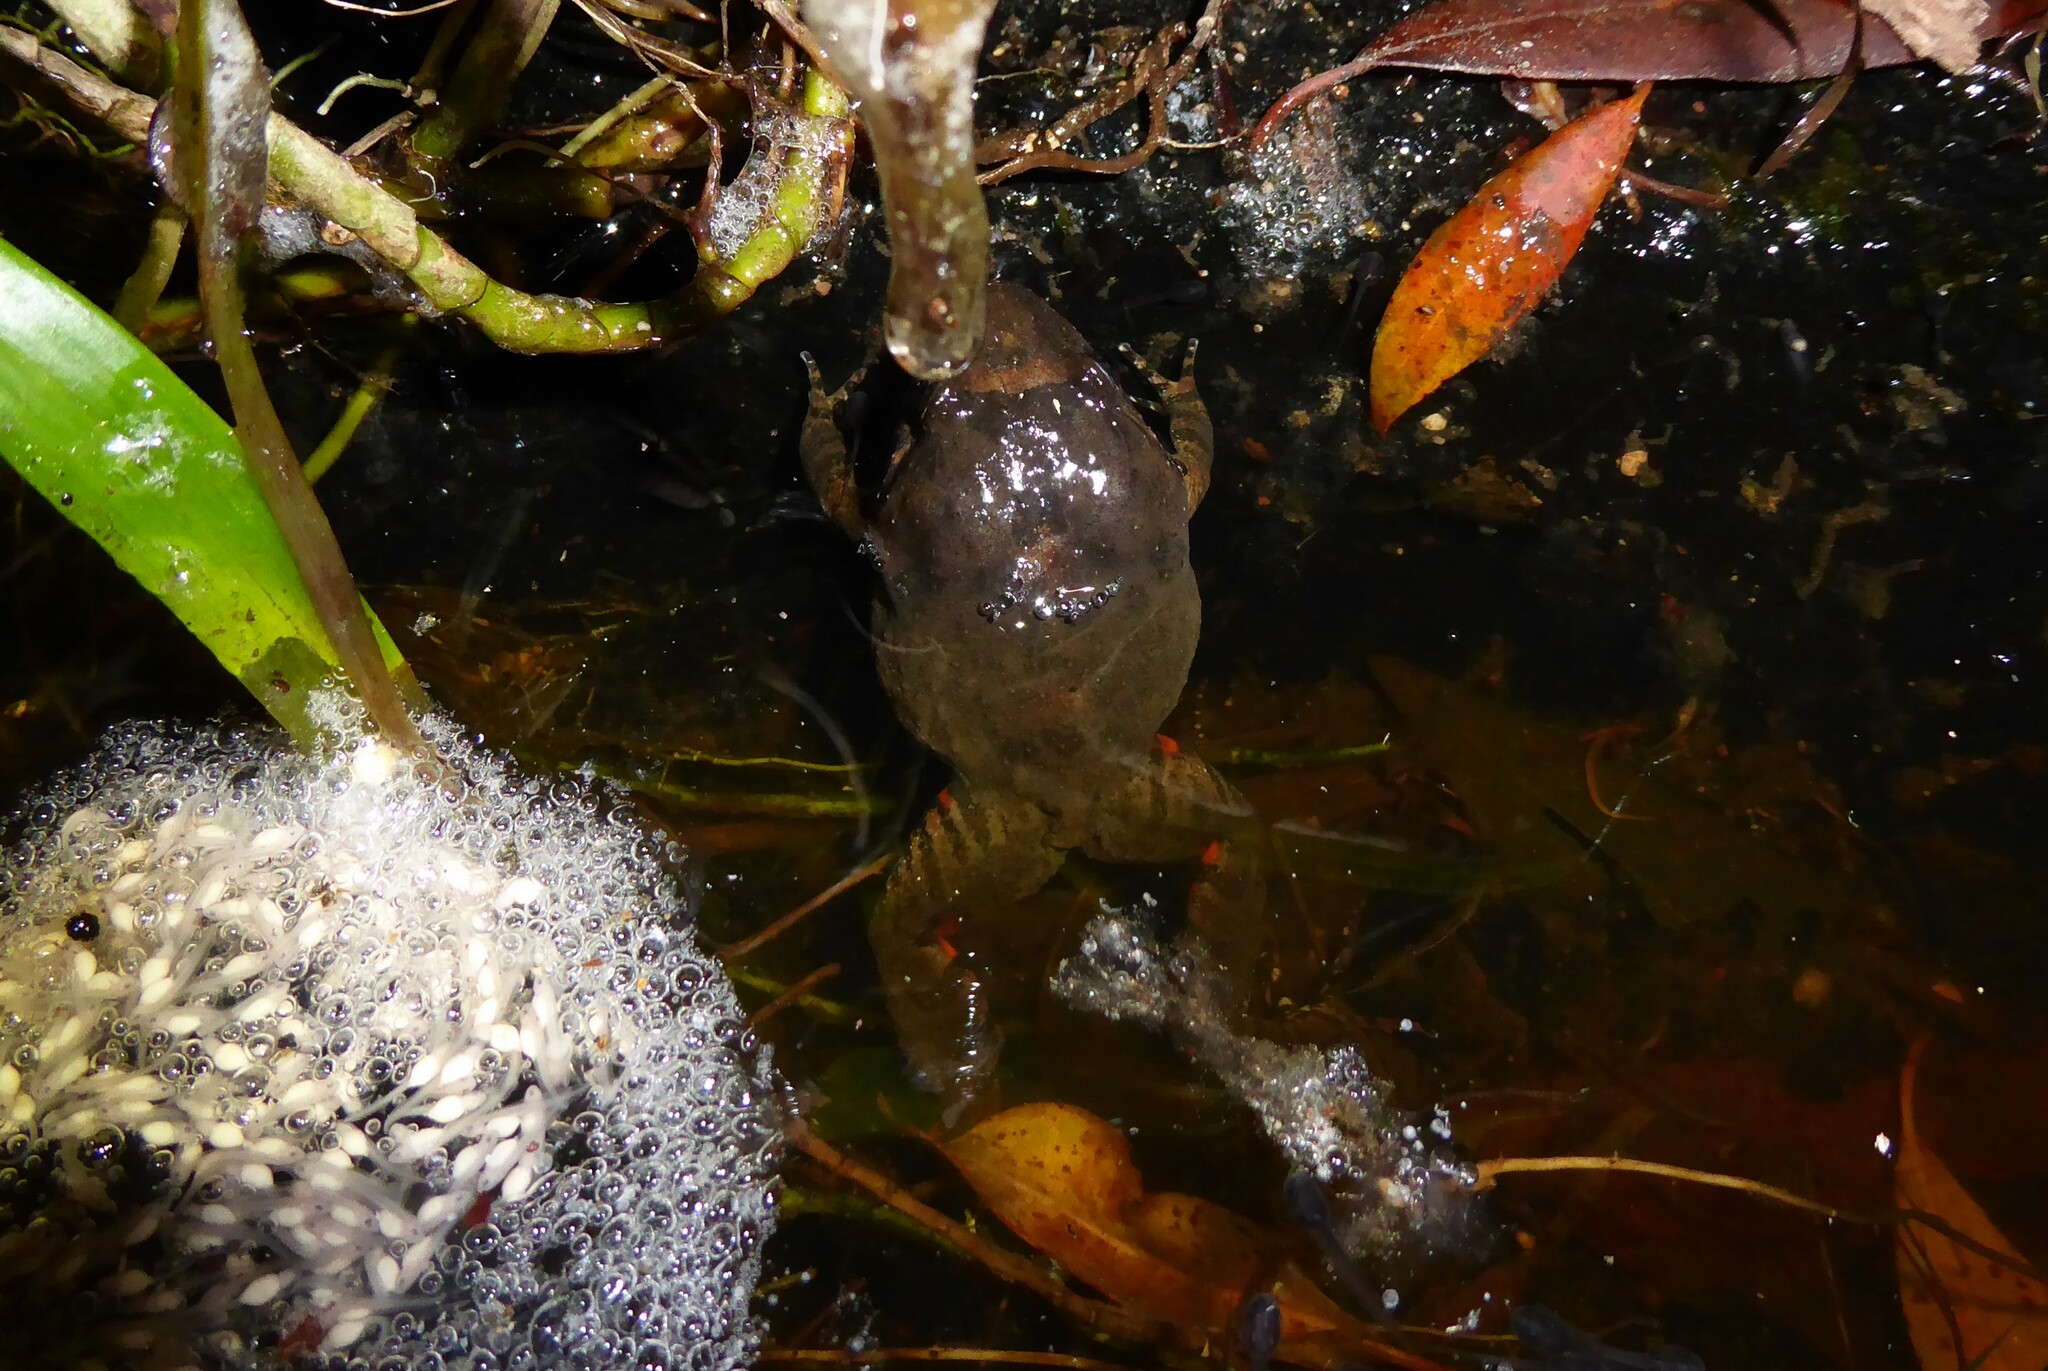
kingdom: Animalia
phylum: Chordata
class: Amphibia
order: Anura
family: Limnodynastidae
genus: Adelotus
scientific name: Adelotus brevis
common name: Tusked frog
